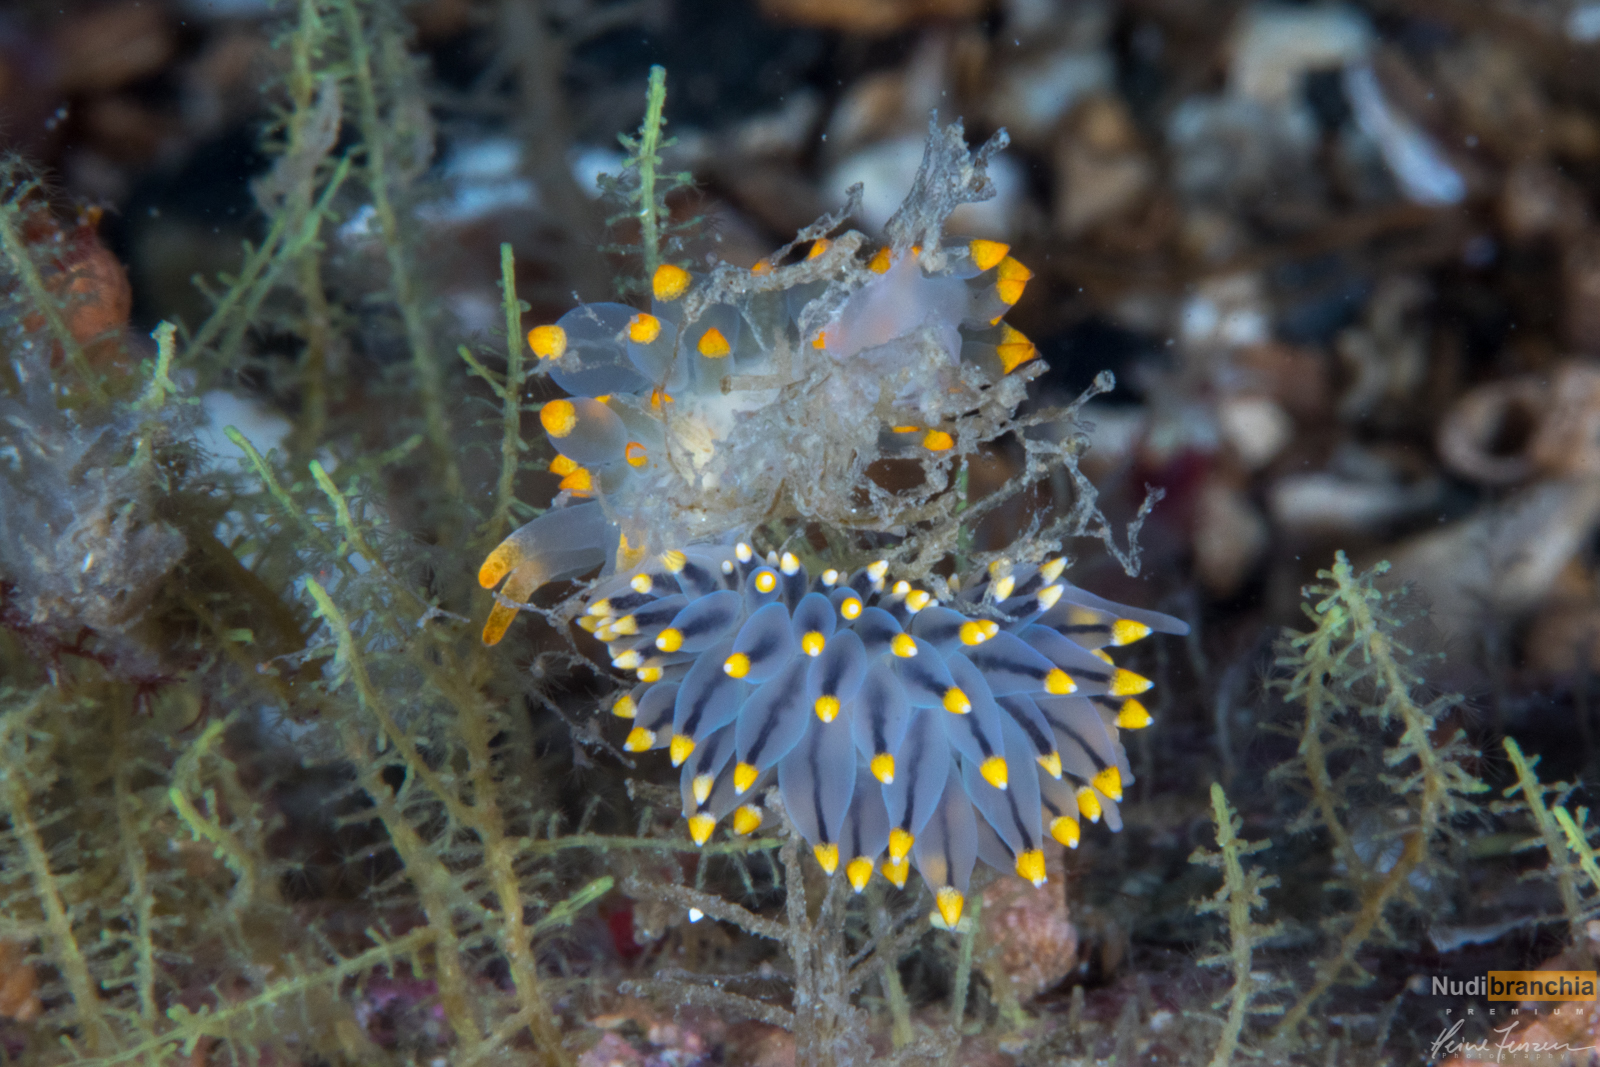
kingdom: Animalia
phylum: Mollusca
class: Gastropoda
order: Nudibranchia
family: Eubranchidae
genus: Amphorina
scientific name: Amphorina farrani
